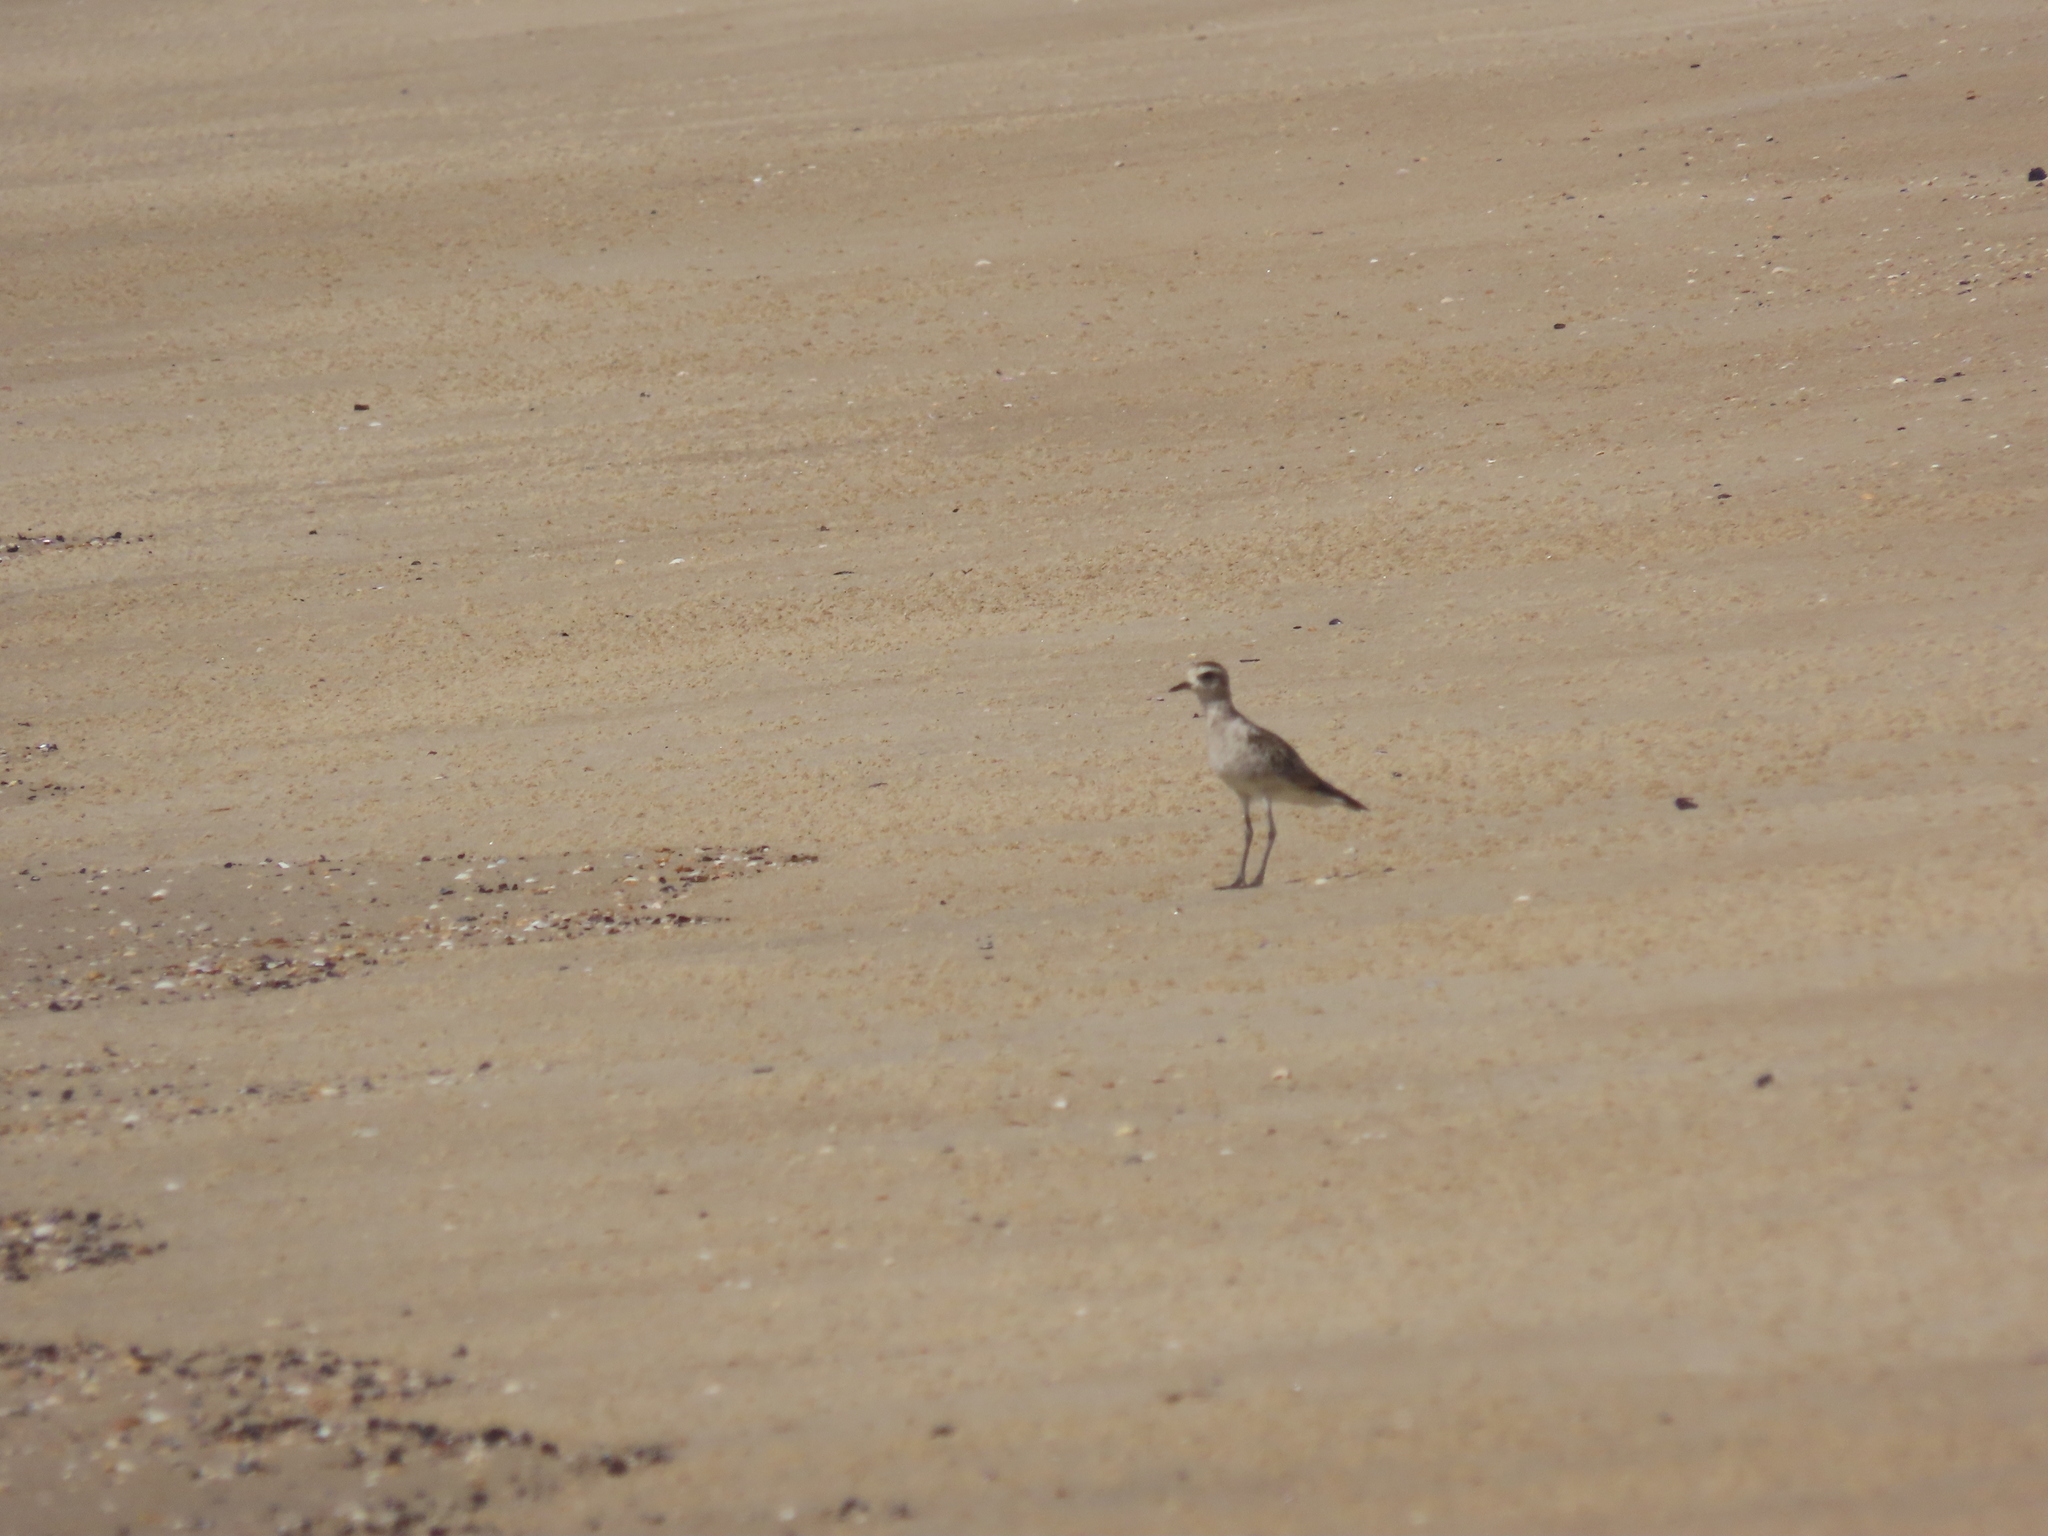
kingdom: Animalia
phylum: Chordata
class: Aves
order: Charadriiformes
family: Charadriidae
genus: Pluvialis
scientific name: Pluvialis dominica
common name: American golden plover
